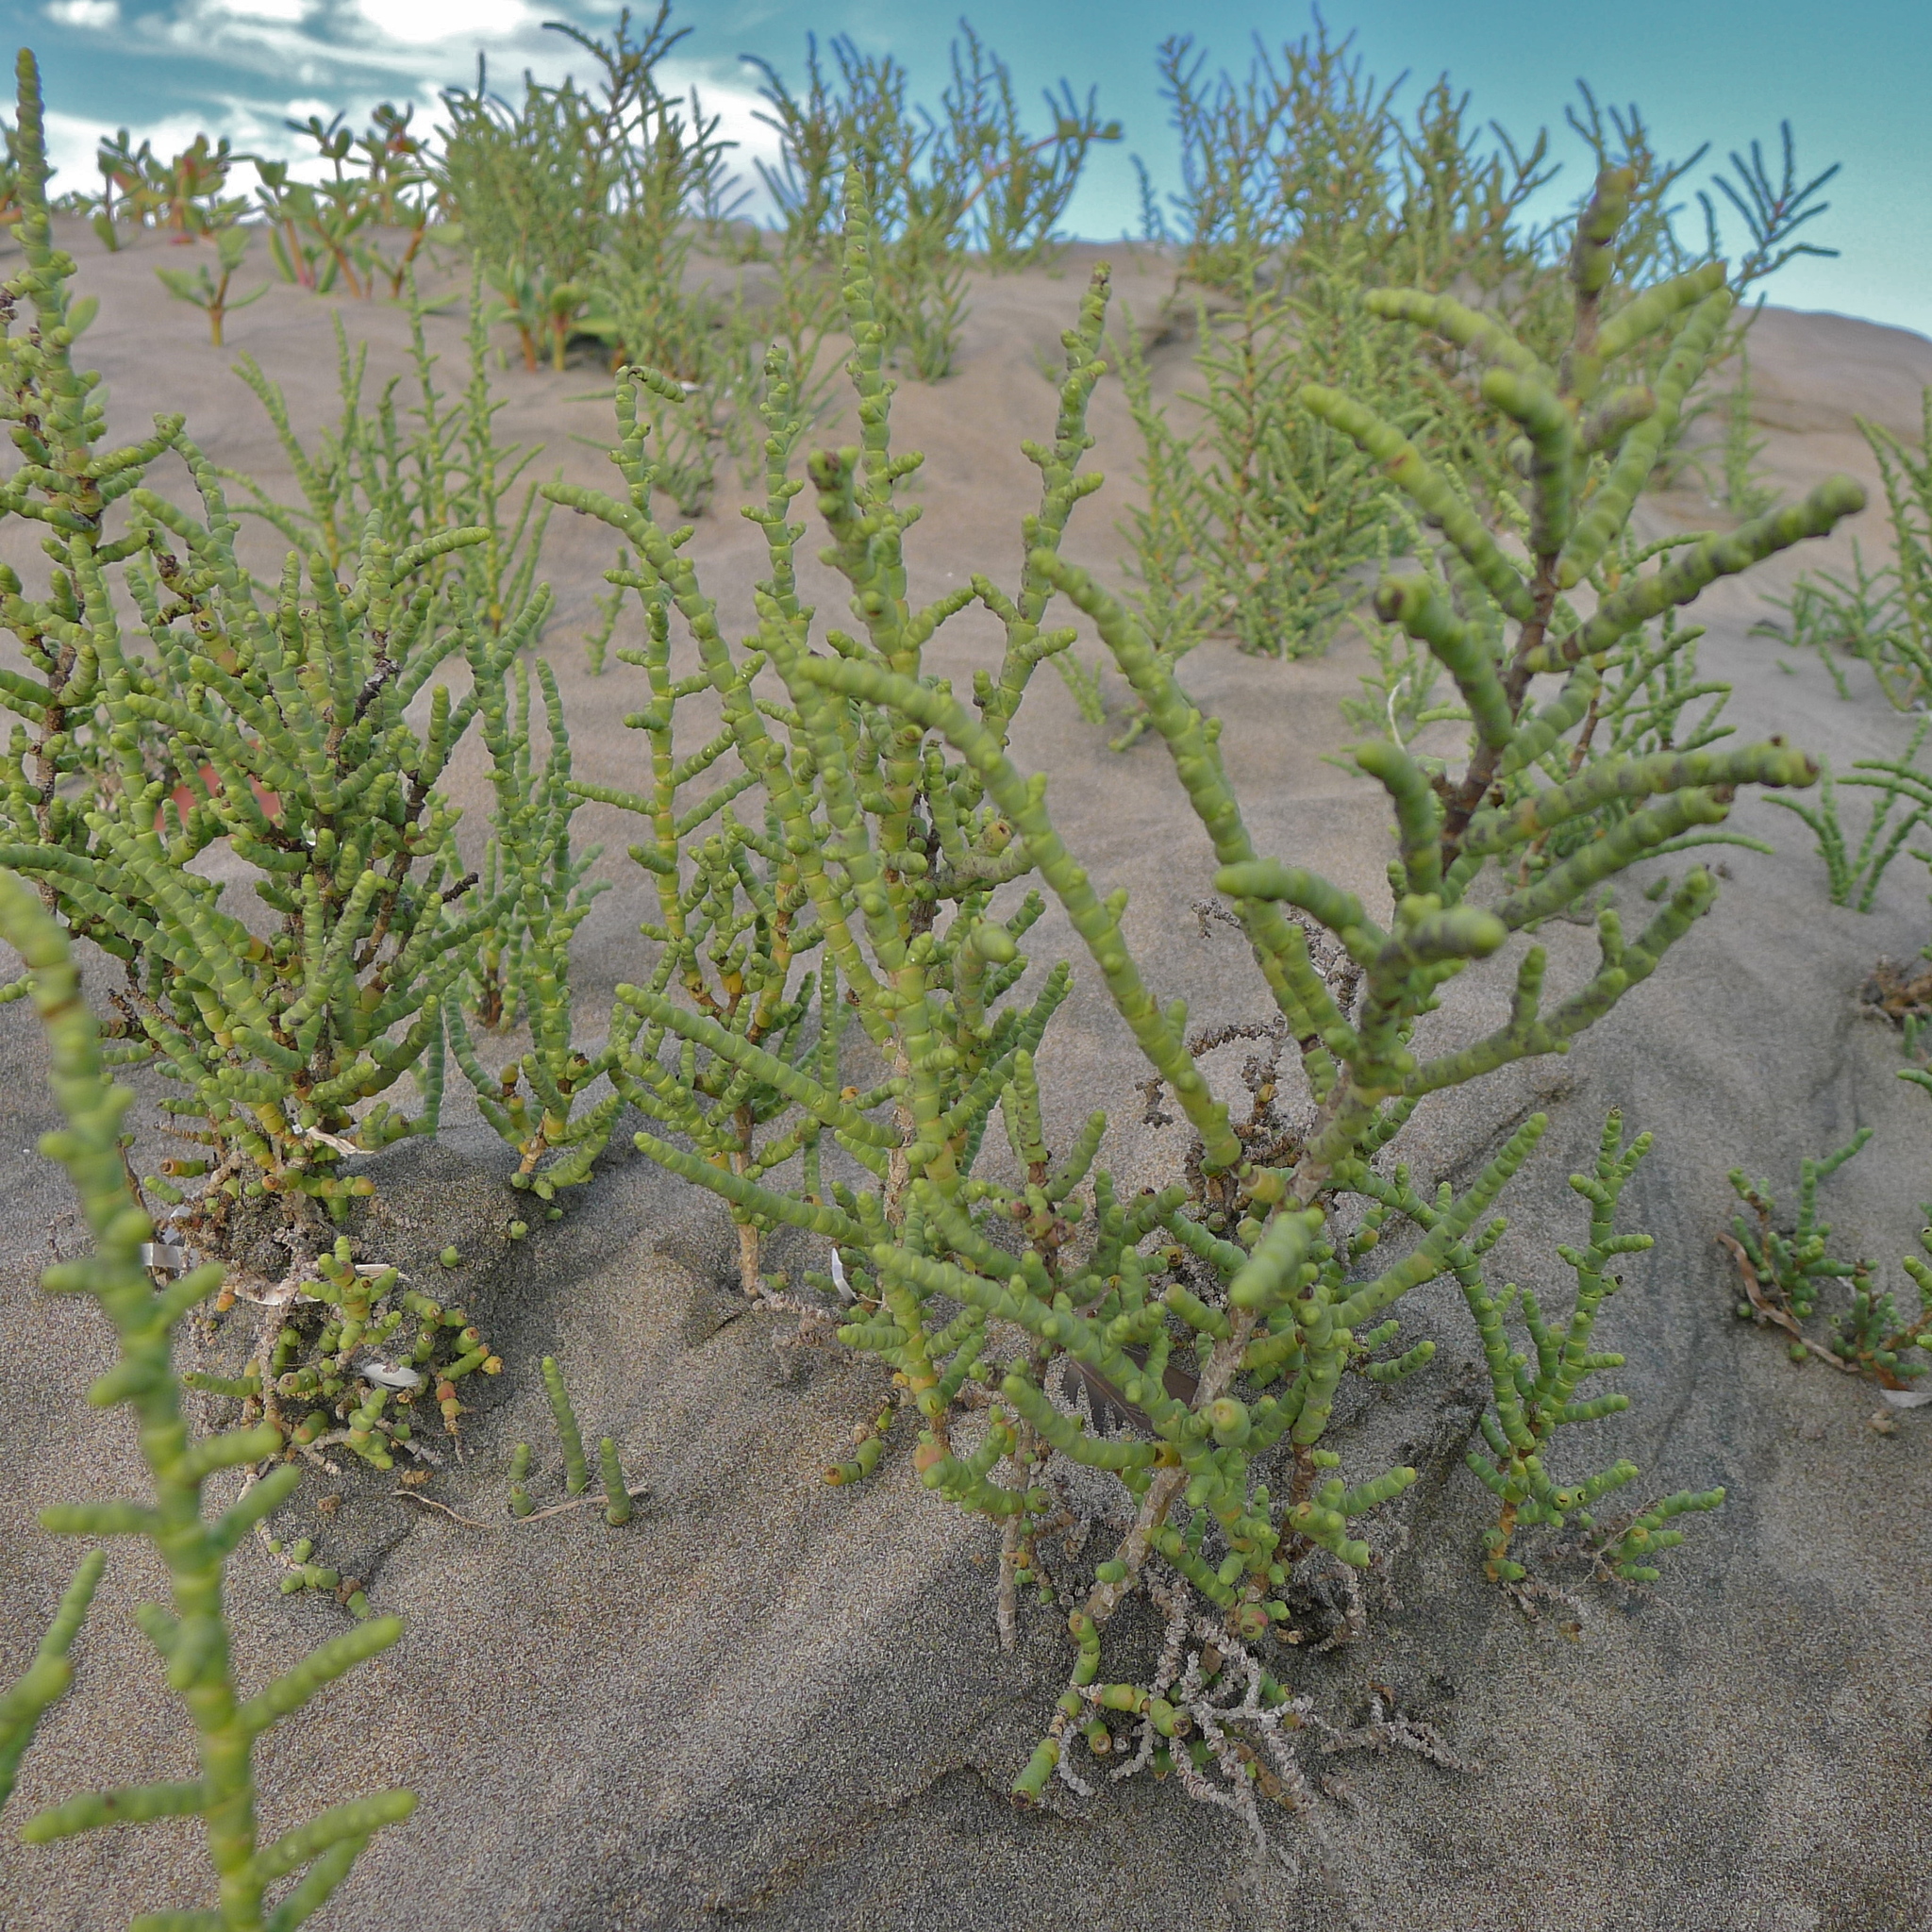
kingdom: Plantae
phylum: Tracheophyta
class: Magnoliopsida
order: Caryophyllales
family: Amaranthaceae
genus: Allenrolfea
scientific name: Allenrolfea occidentalis
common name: Iodine-bush
